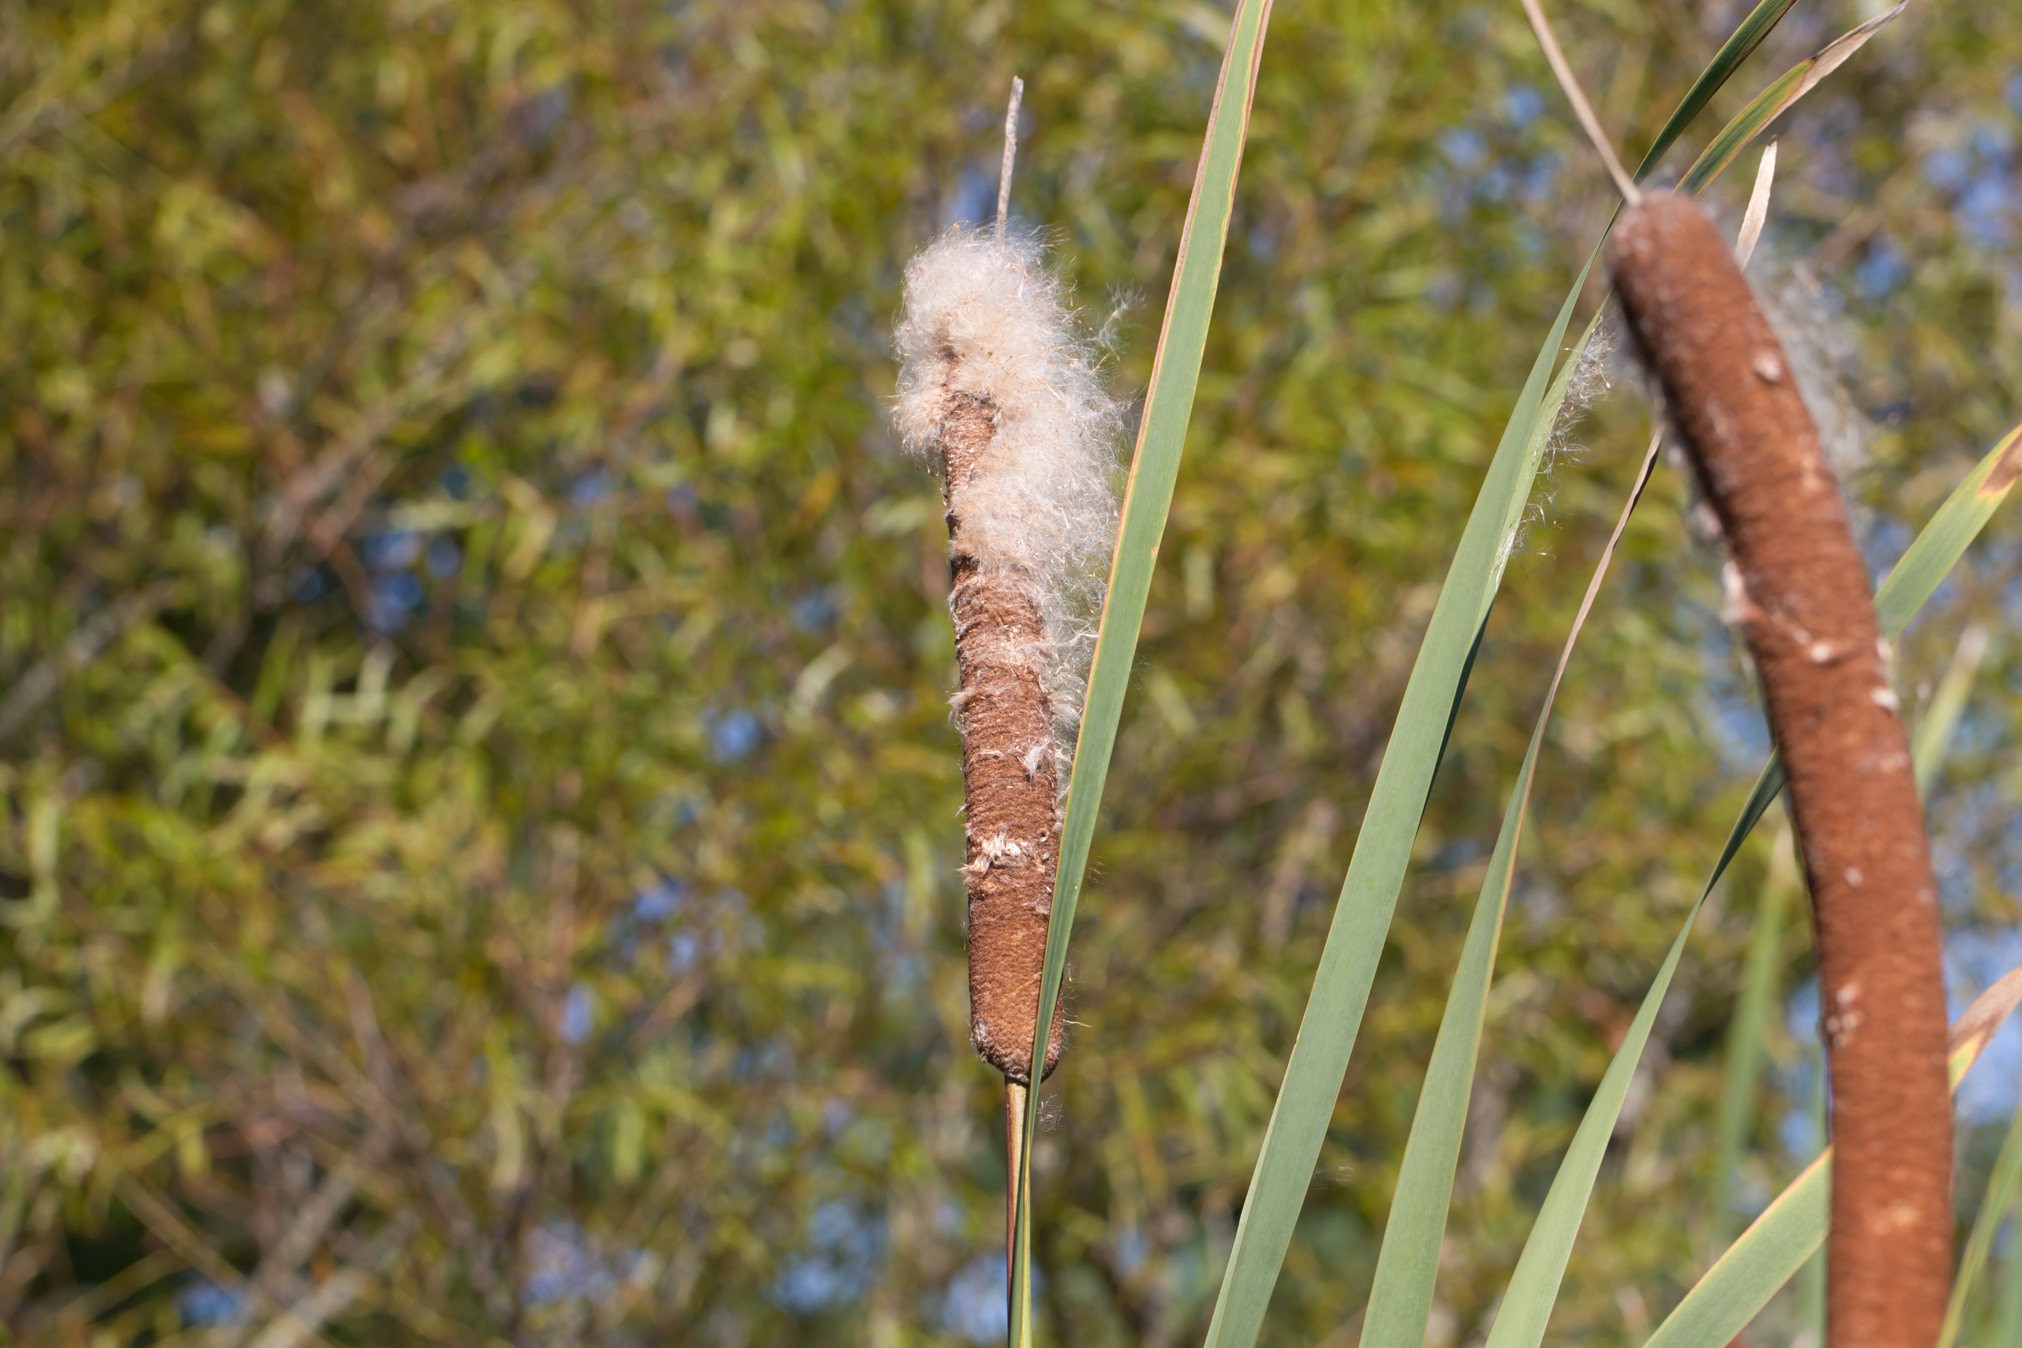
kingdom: Plantae
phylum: Tracheophyta
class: Liliopsida
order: Poales
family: Typhaceae
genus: Typha
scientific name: Typha latifolia
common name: Broadleaf cattail
